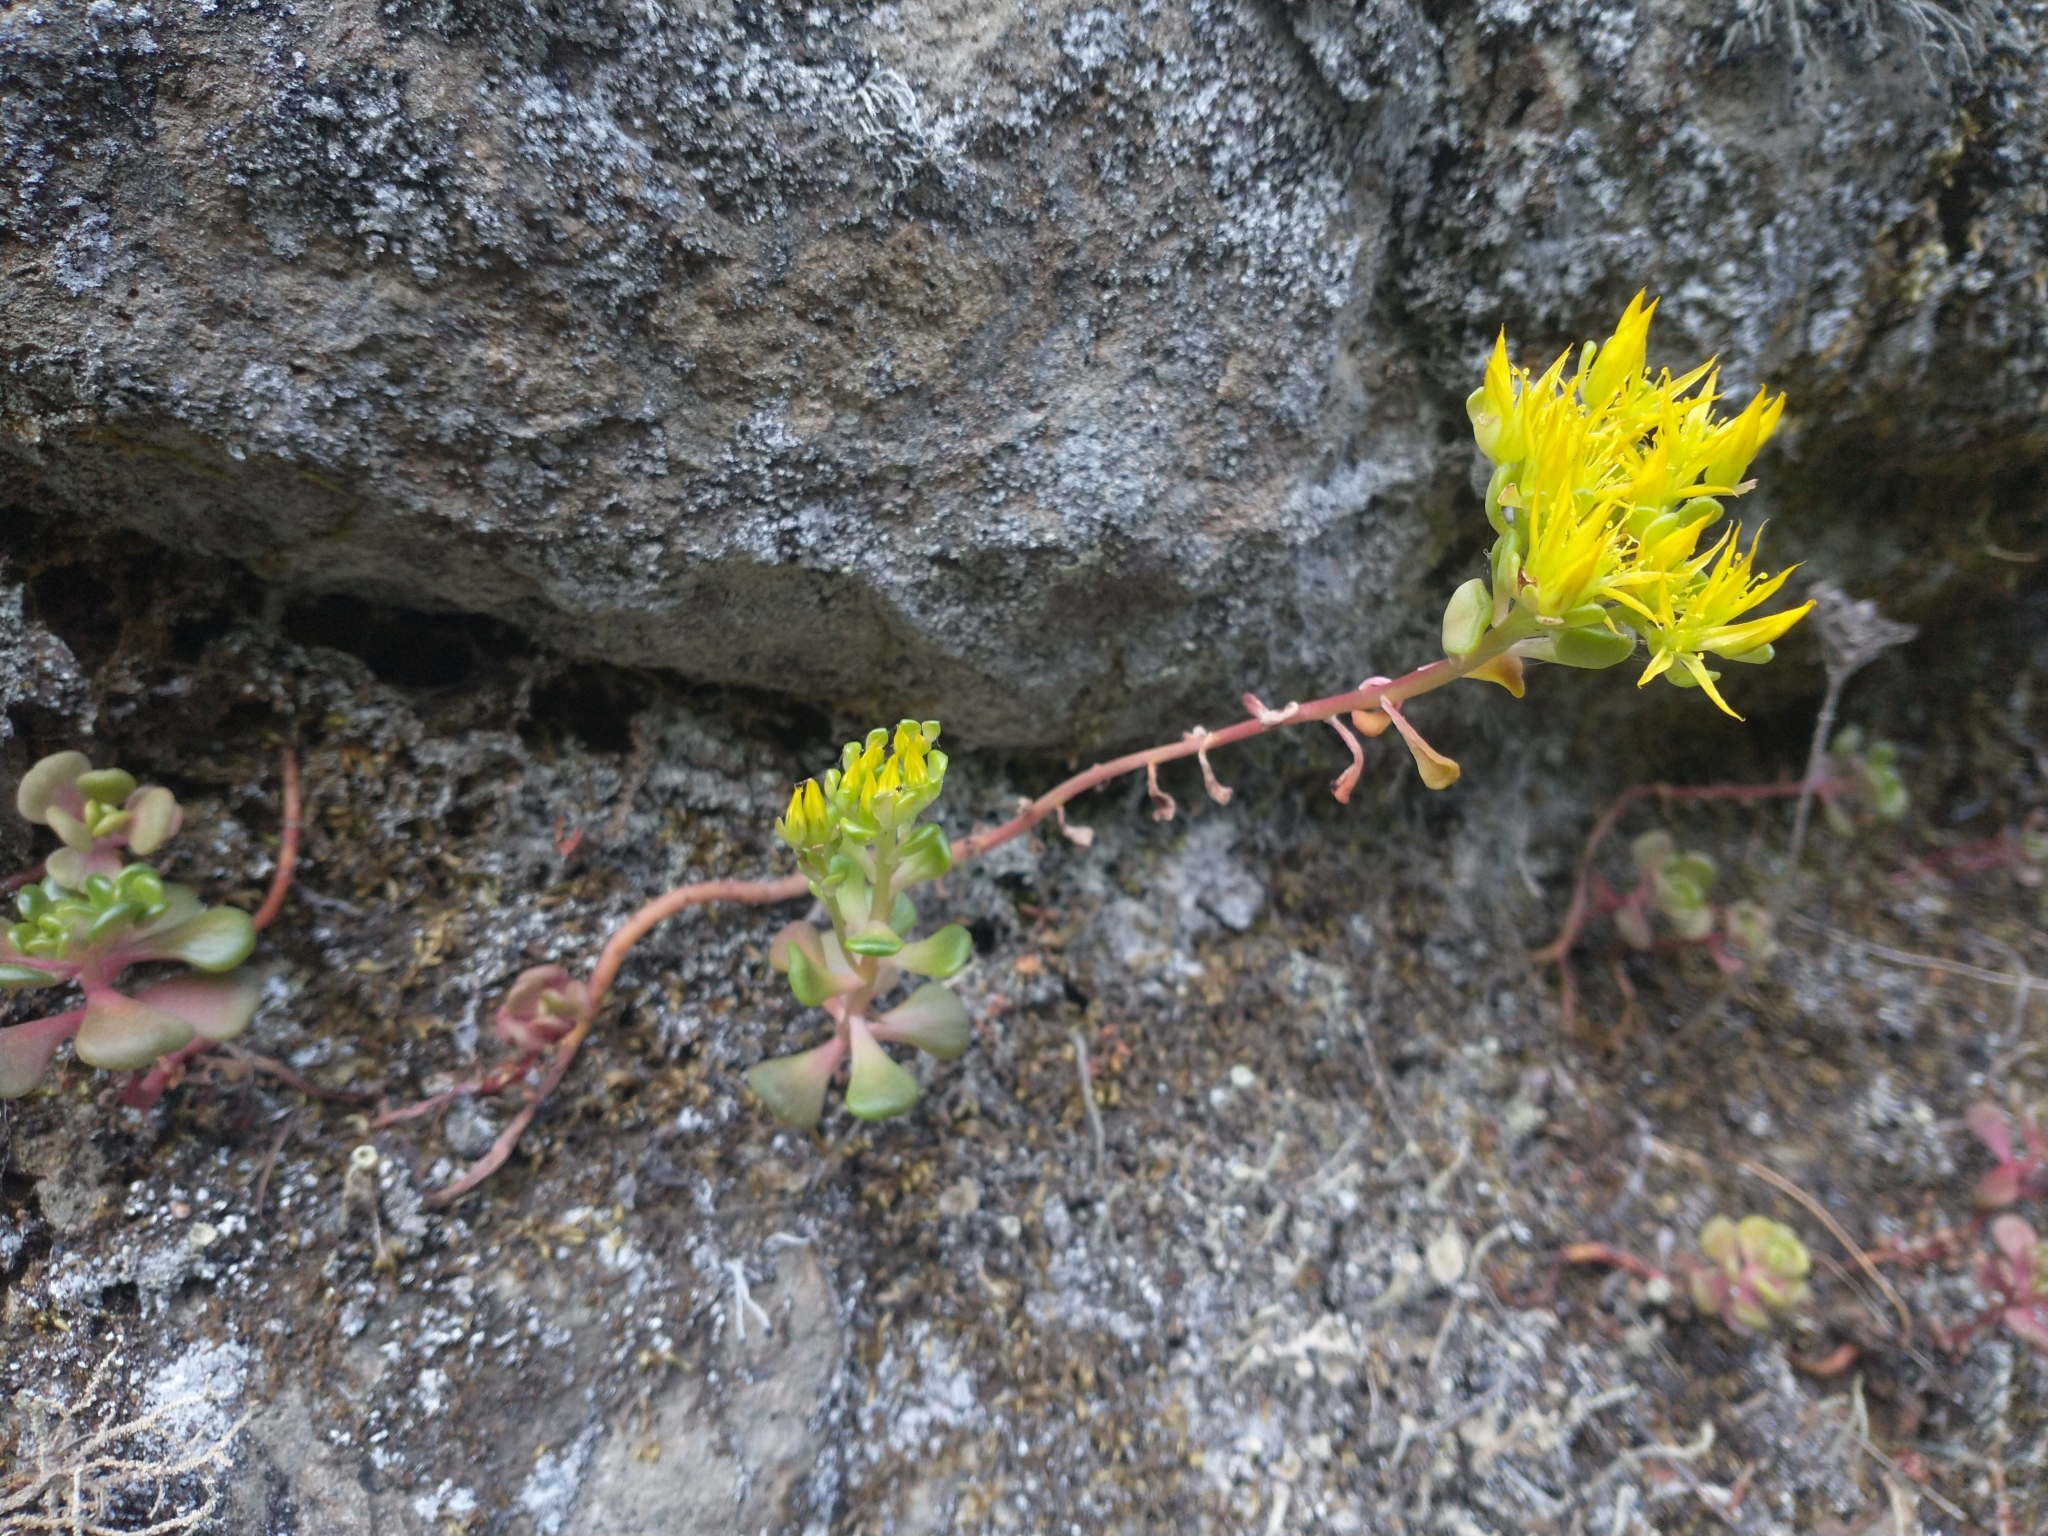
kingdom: Plantae
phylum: Tracheophyta
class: Magnoliopsida
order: Saxifragales
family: Crassulaceae
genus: Sedum
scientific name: Sedum oreganum
